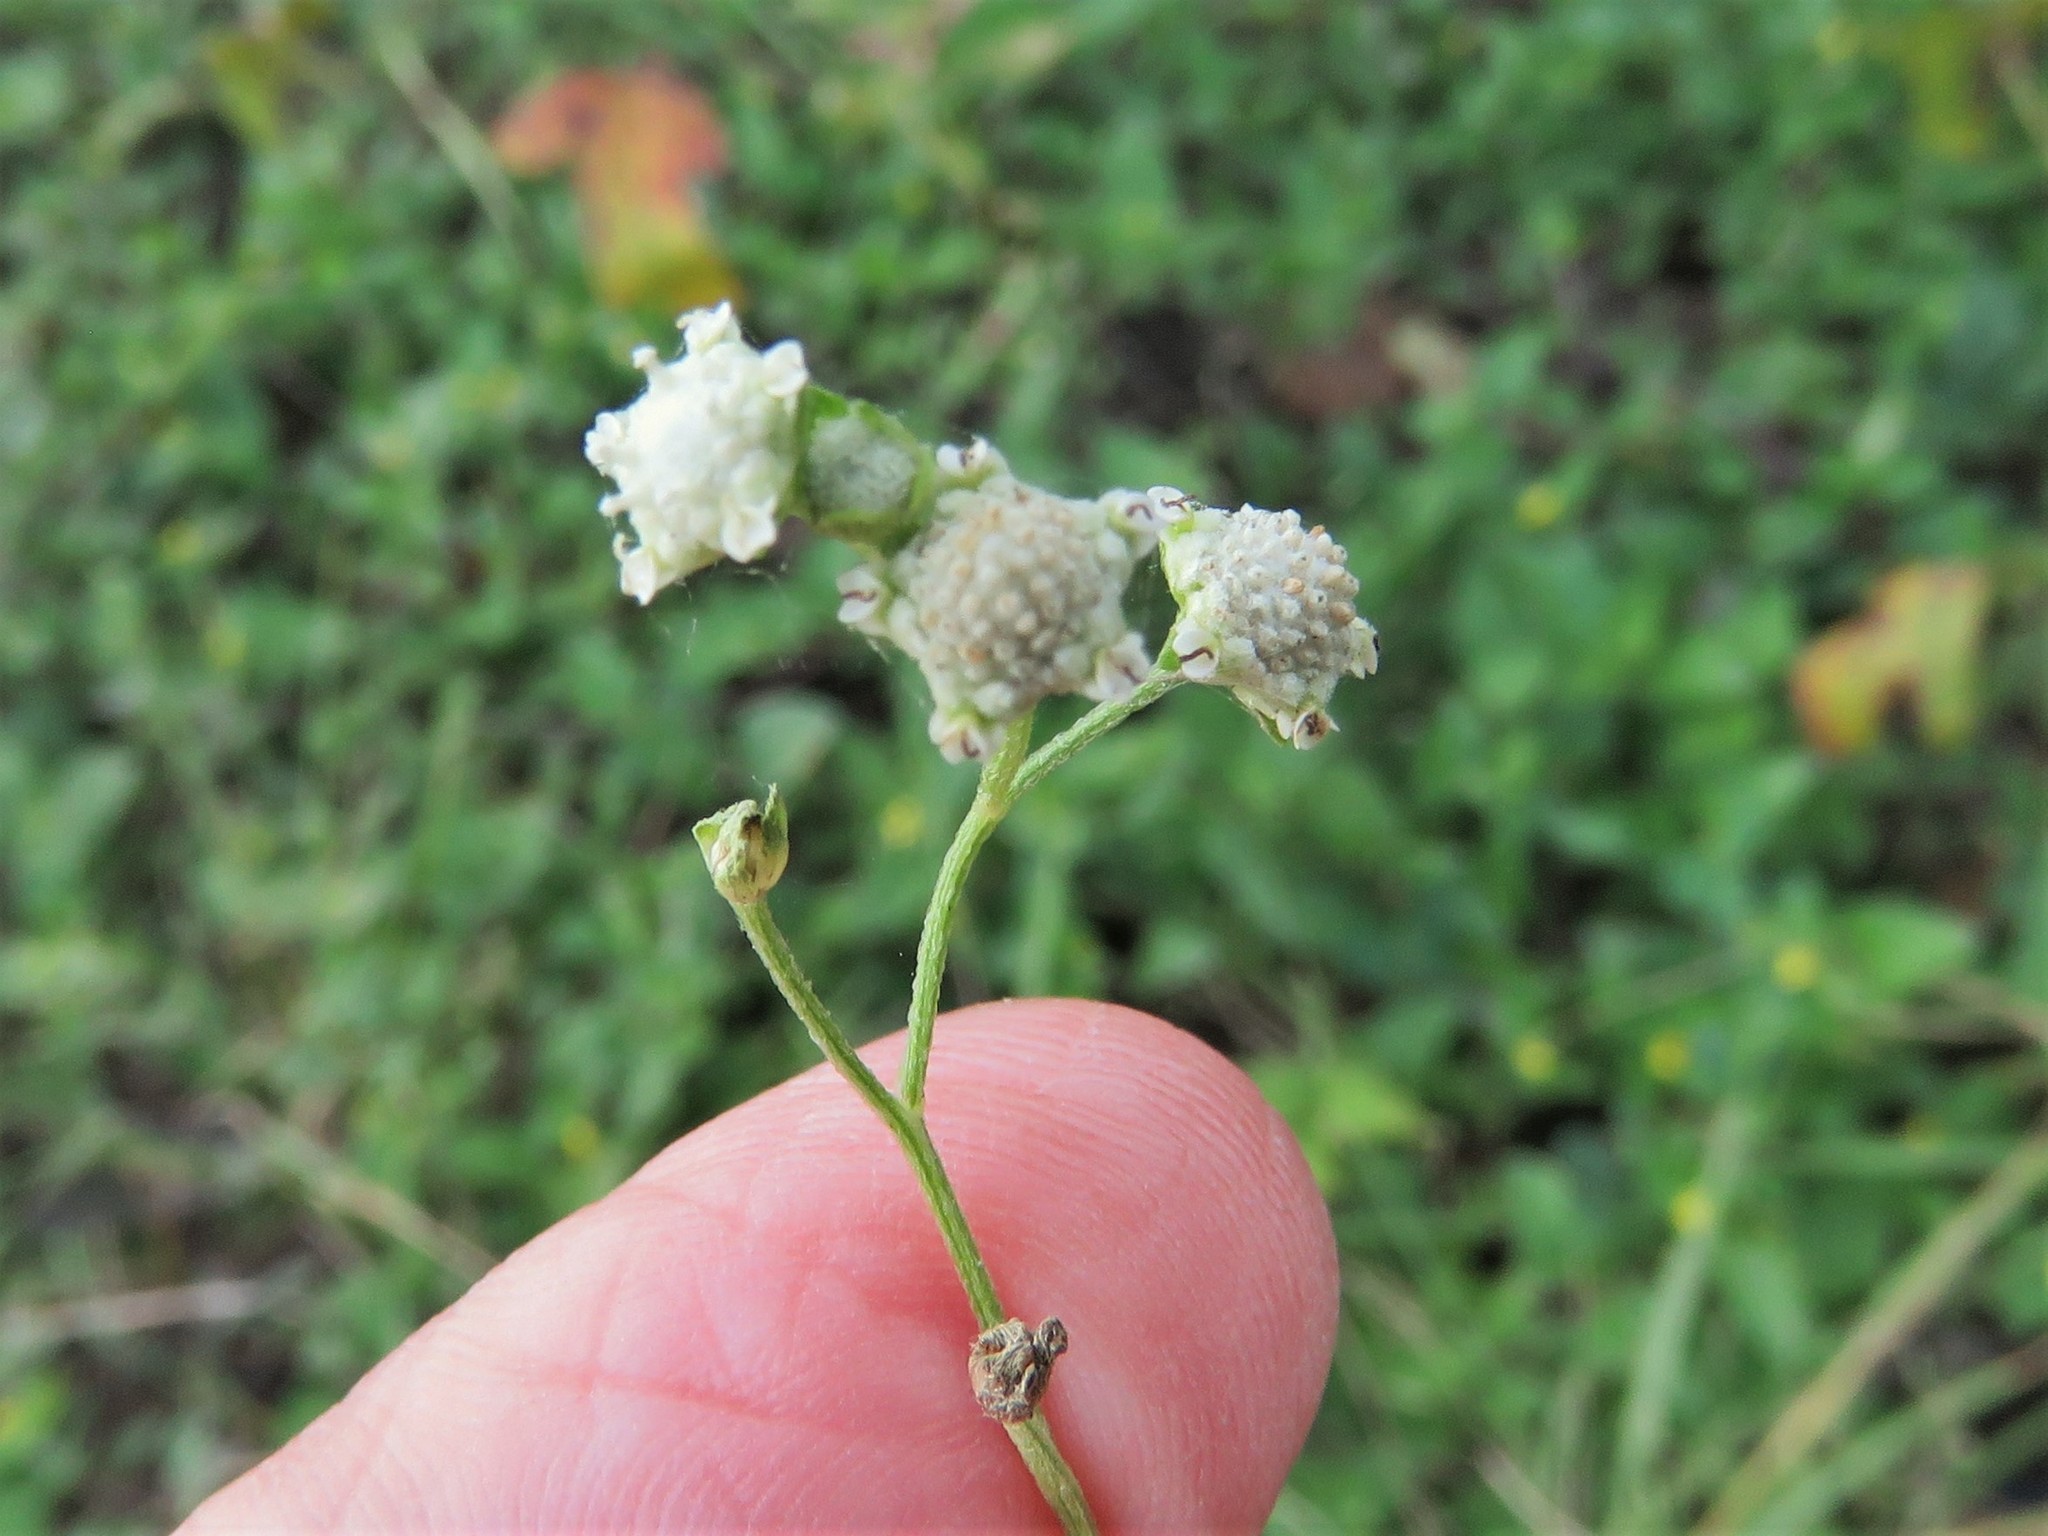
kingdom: Plantae
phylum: Tracheophyta
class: Magnoliopsida
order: Asterales
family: Asteraceae
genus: Parthenium
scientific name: Parthenium hysterophorus
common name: Santa maria feverfew
